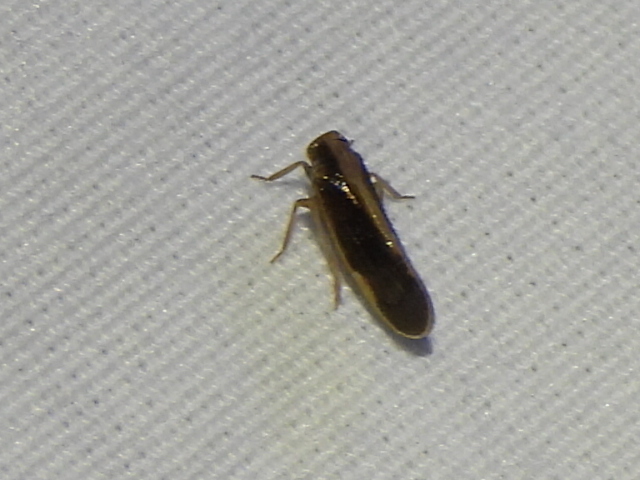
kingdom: Animalia
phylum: Arthropoda
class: Insecta
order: Hemiptera
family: Cixiidae
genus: Pintalia
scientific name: Pintalia delicata
